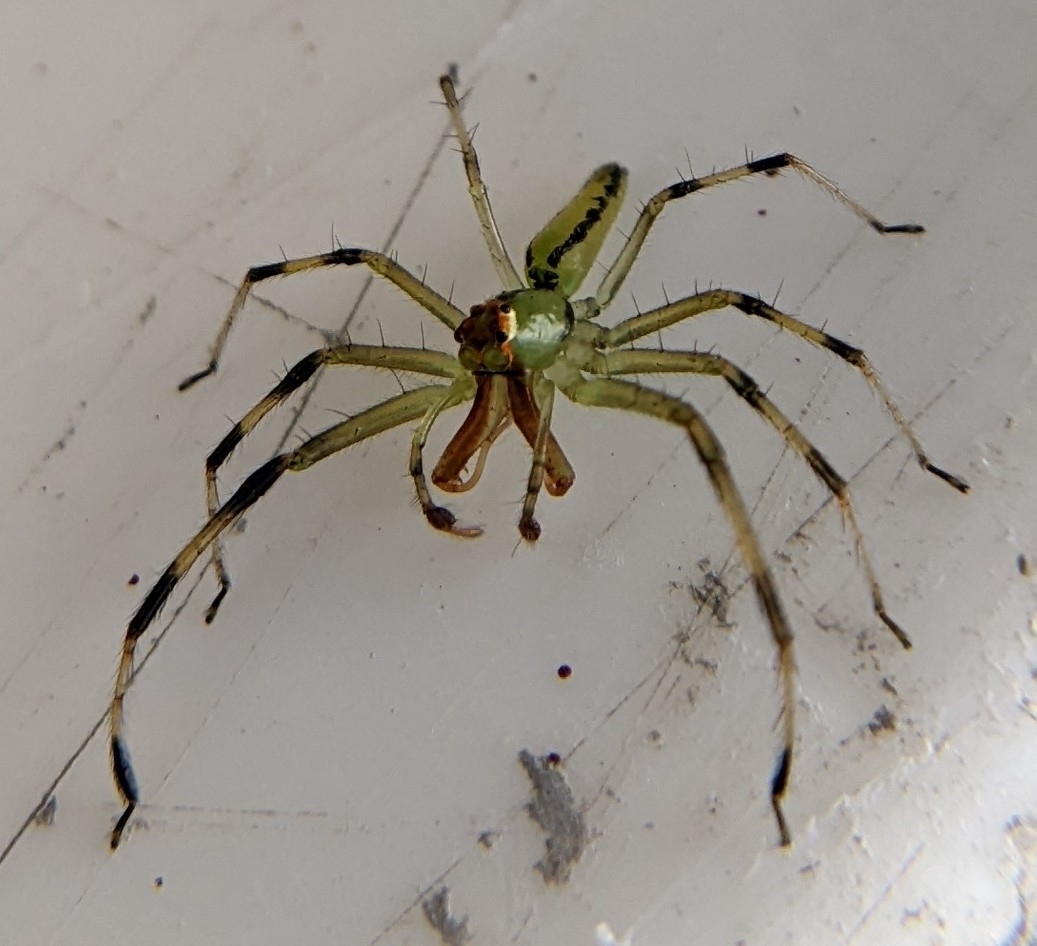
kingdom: Animalia
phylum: Arthropoda
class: Arachnida
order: Araneae
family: Salticidae
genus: Lyssomanes
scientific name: Lyssomanes viridis
